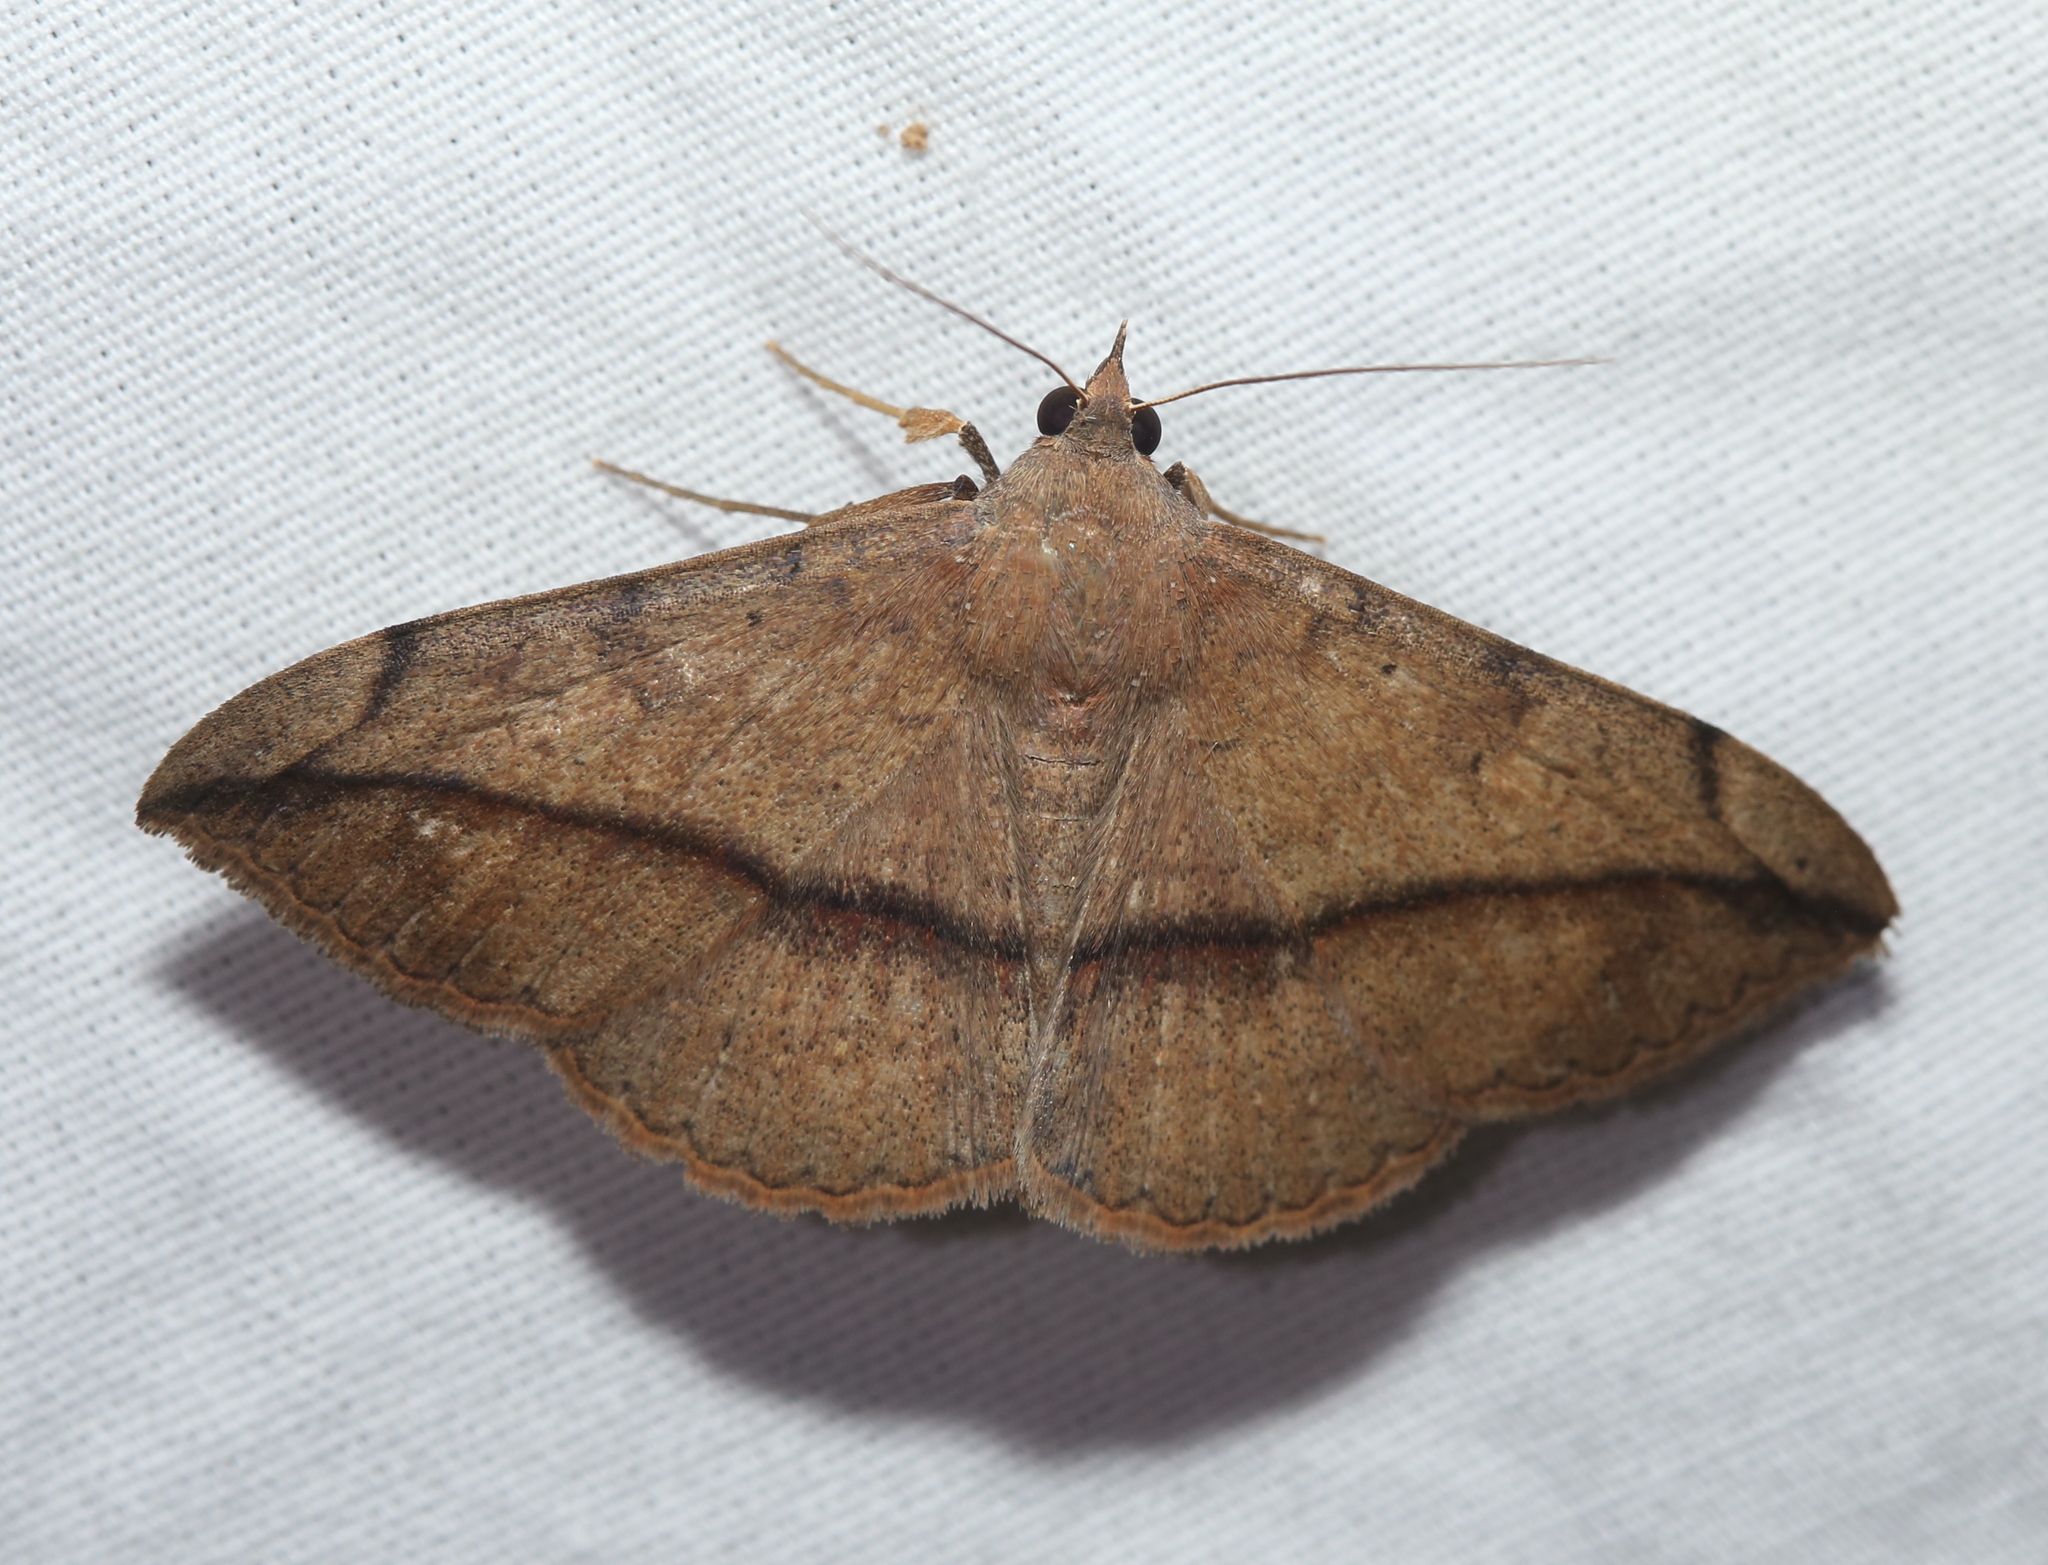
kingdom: Animalia
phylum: Arthropoda
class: Insecta
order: Lepidoptera
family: Erebidae
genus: Anticarsia
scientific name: Anticarsia gemmatalis
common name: Cutworm moth
